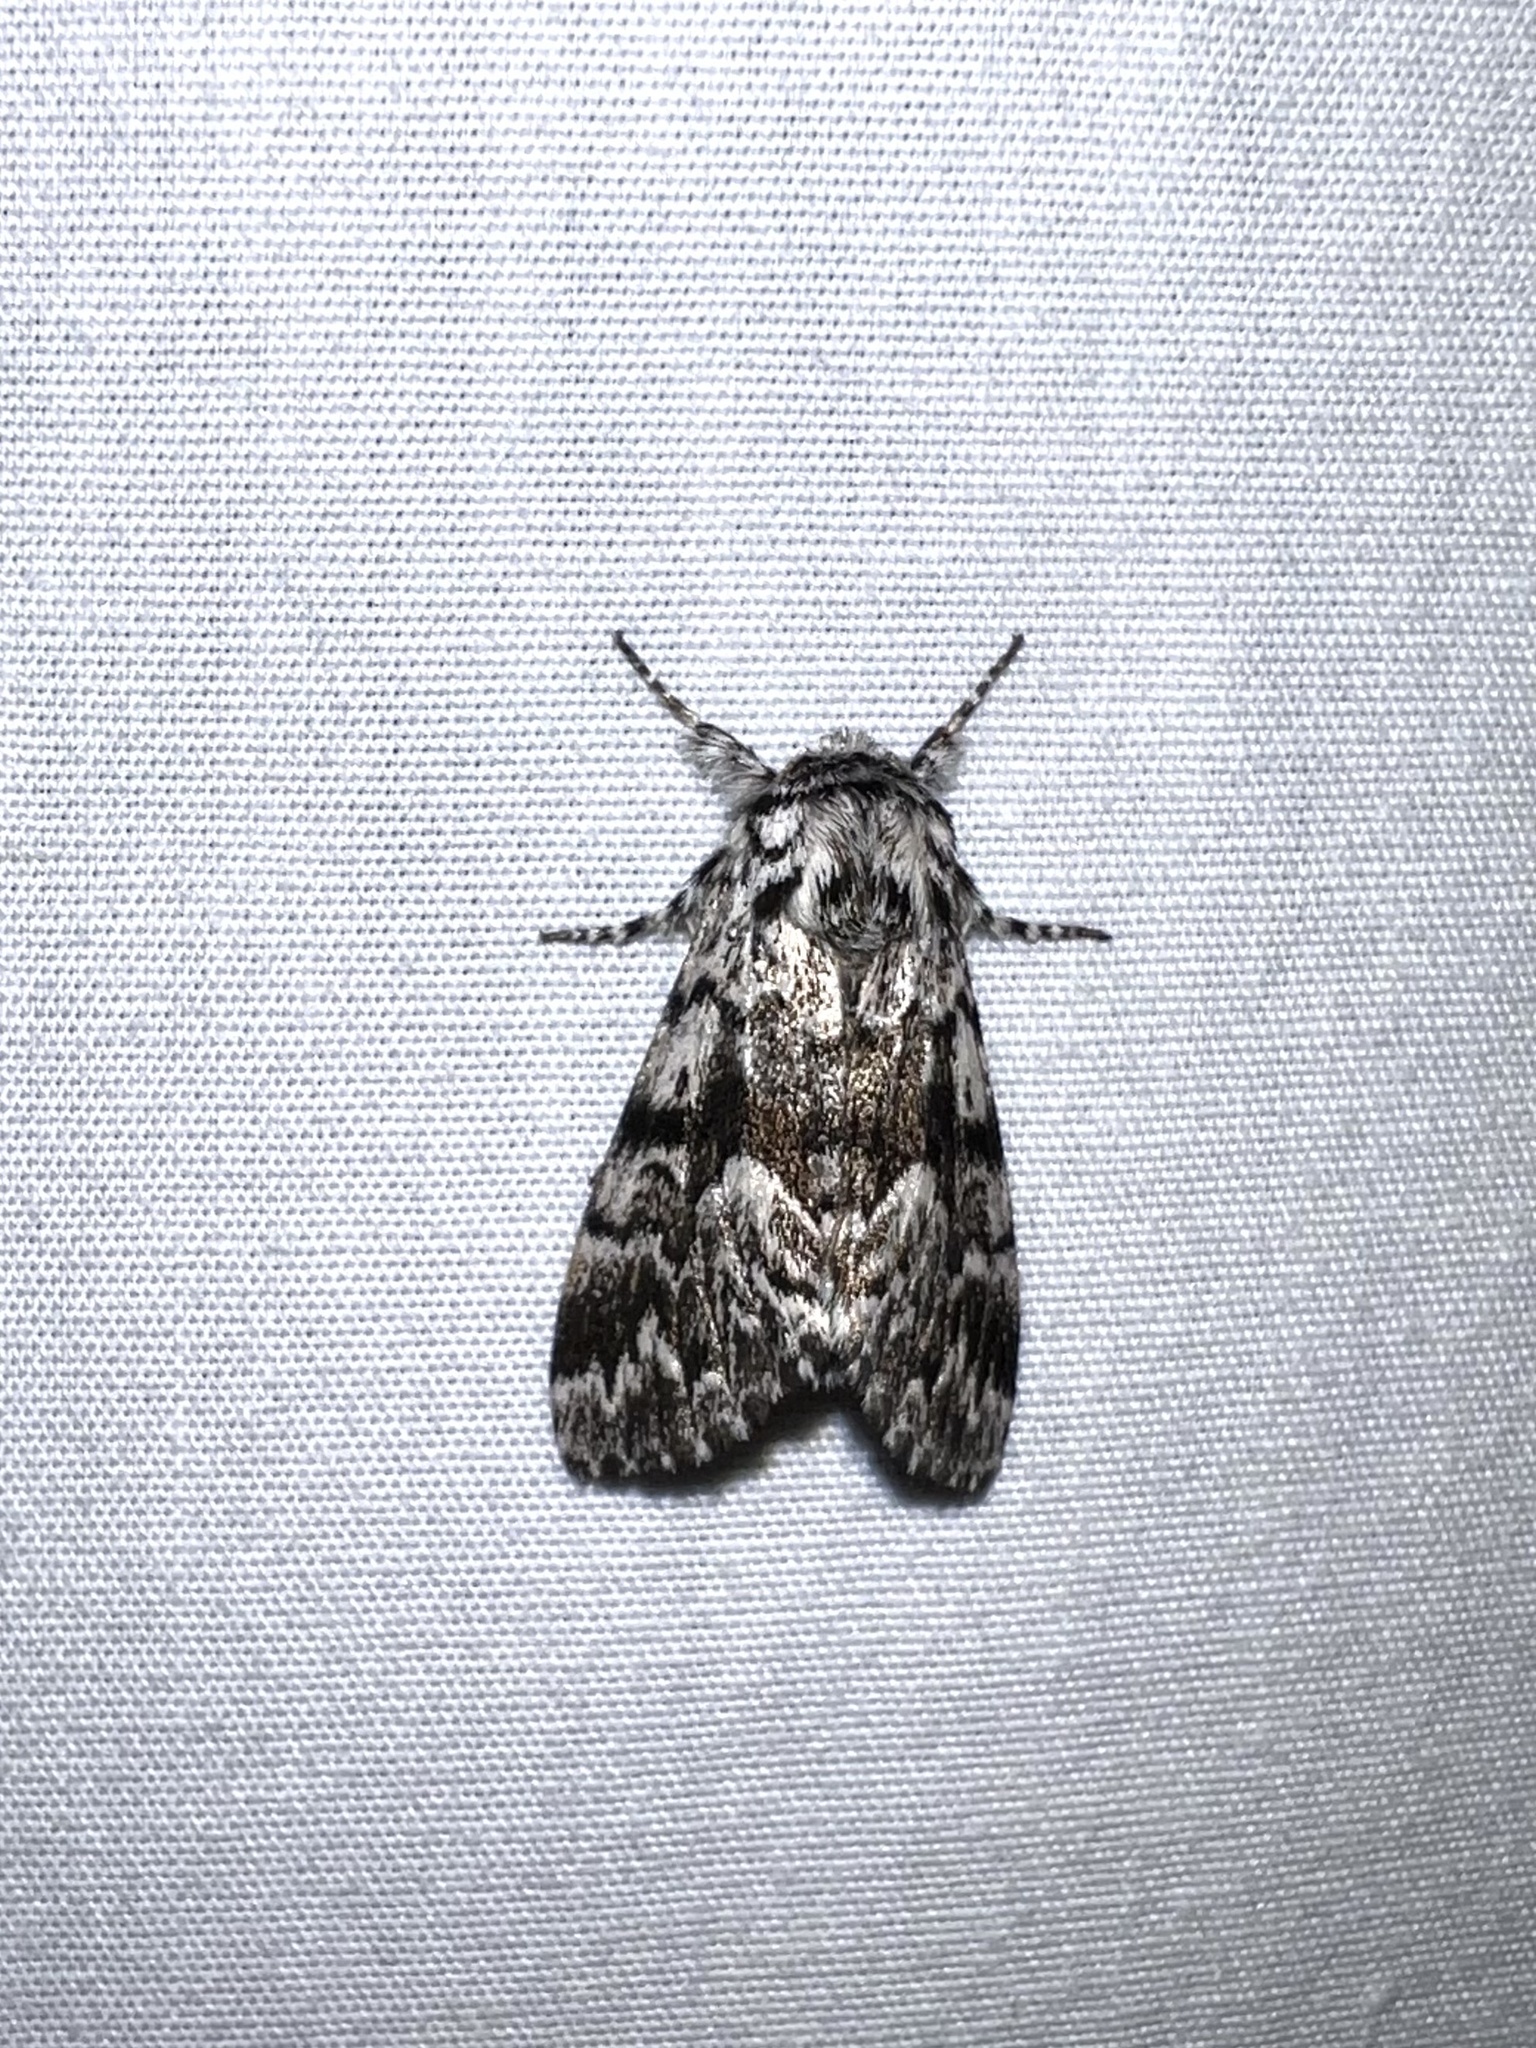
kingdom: Animalia
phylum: Arthropoda
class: Insecta
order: Lepidoptera
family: Noctuidae
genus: Panthea
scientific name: Panthea acronyctoides
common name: Black zigzag moth
